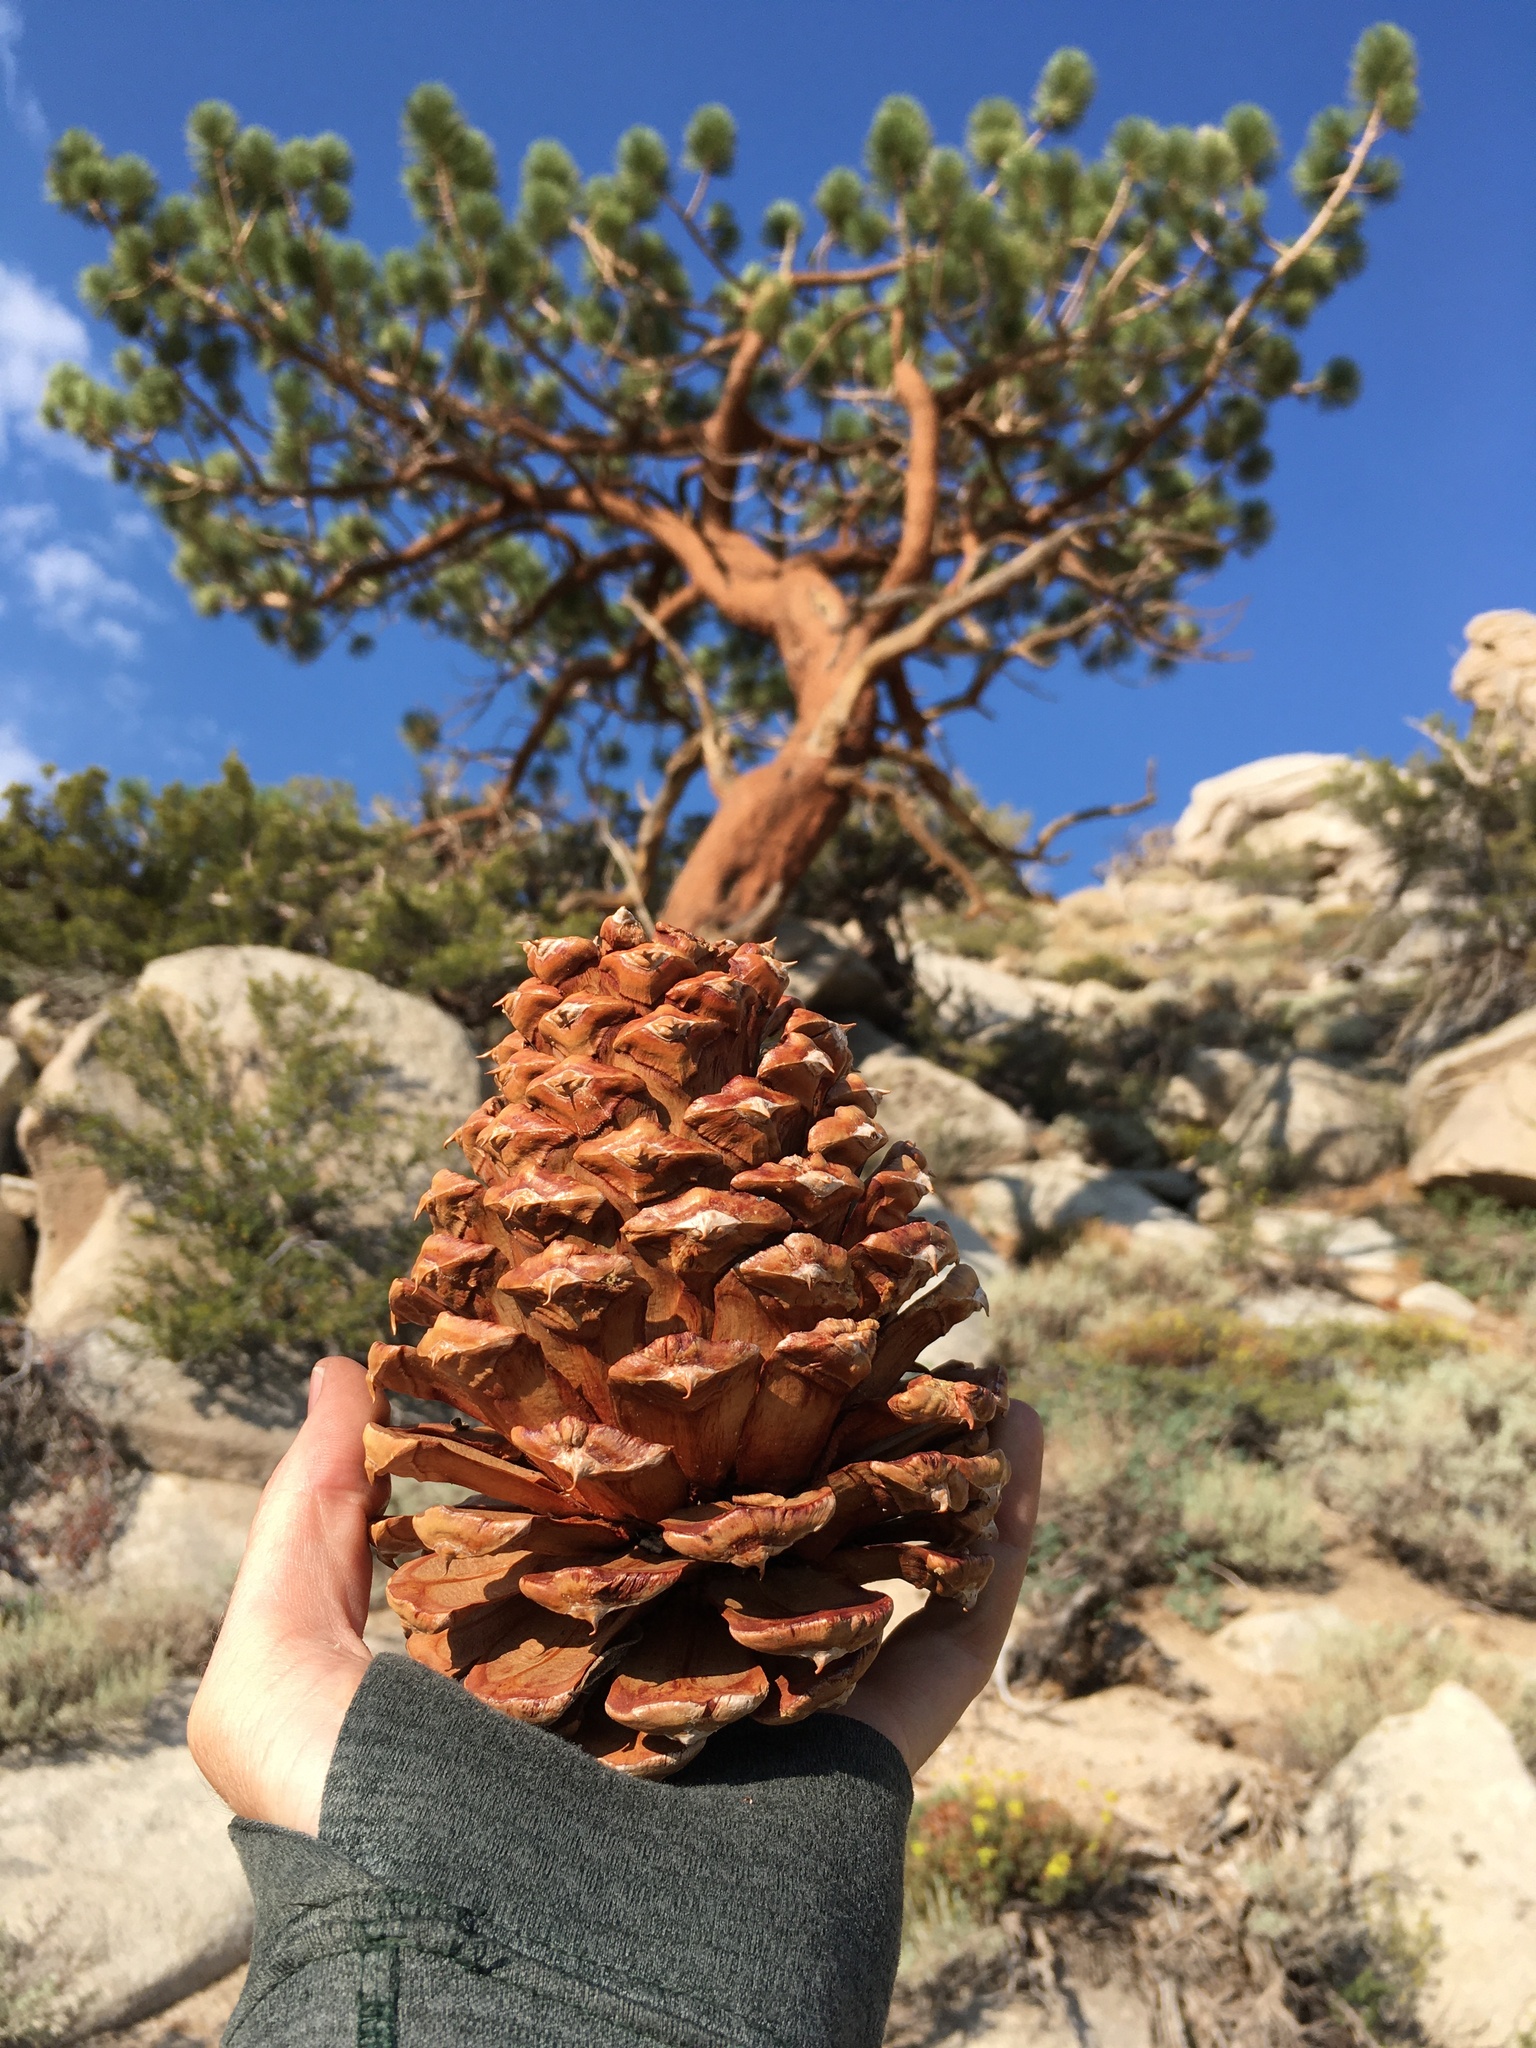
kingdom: Plantae
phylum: Tracheophyta
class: Pinopsida
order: Pinales
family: Pinaceae
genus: Pinus
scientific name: Pinus jeffreyi
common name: Jeffrey pine
